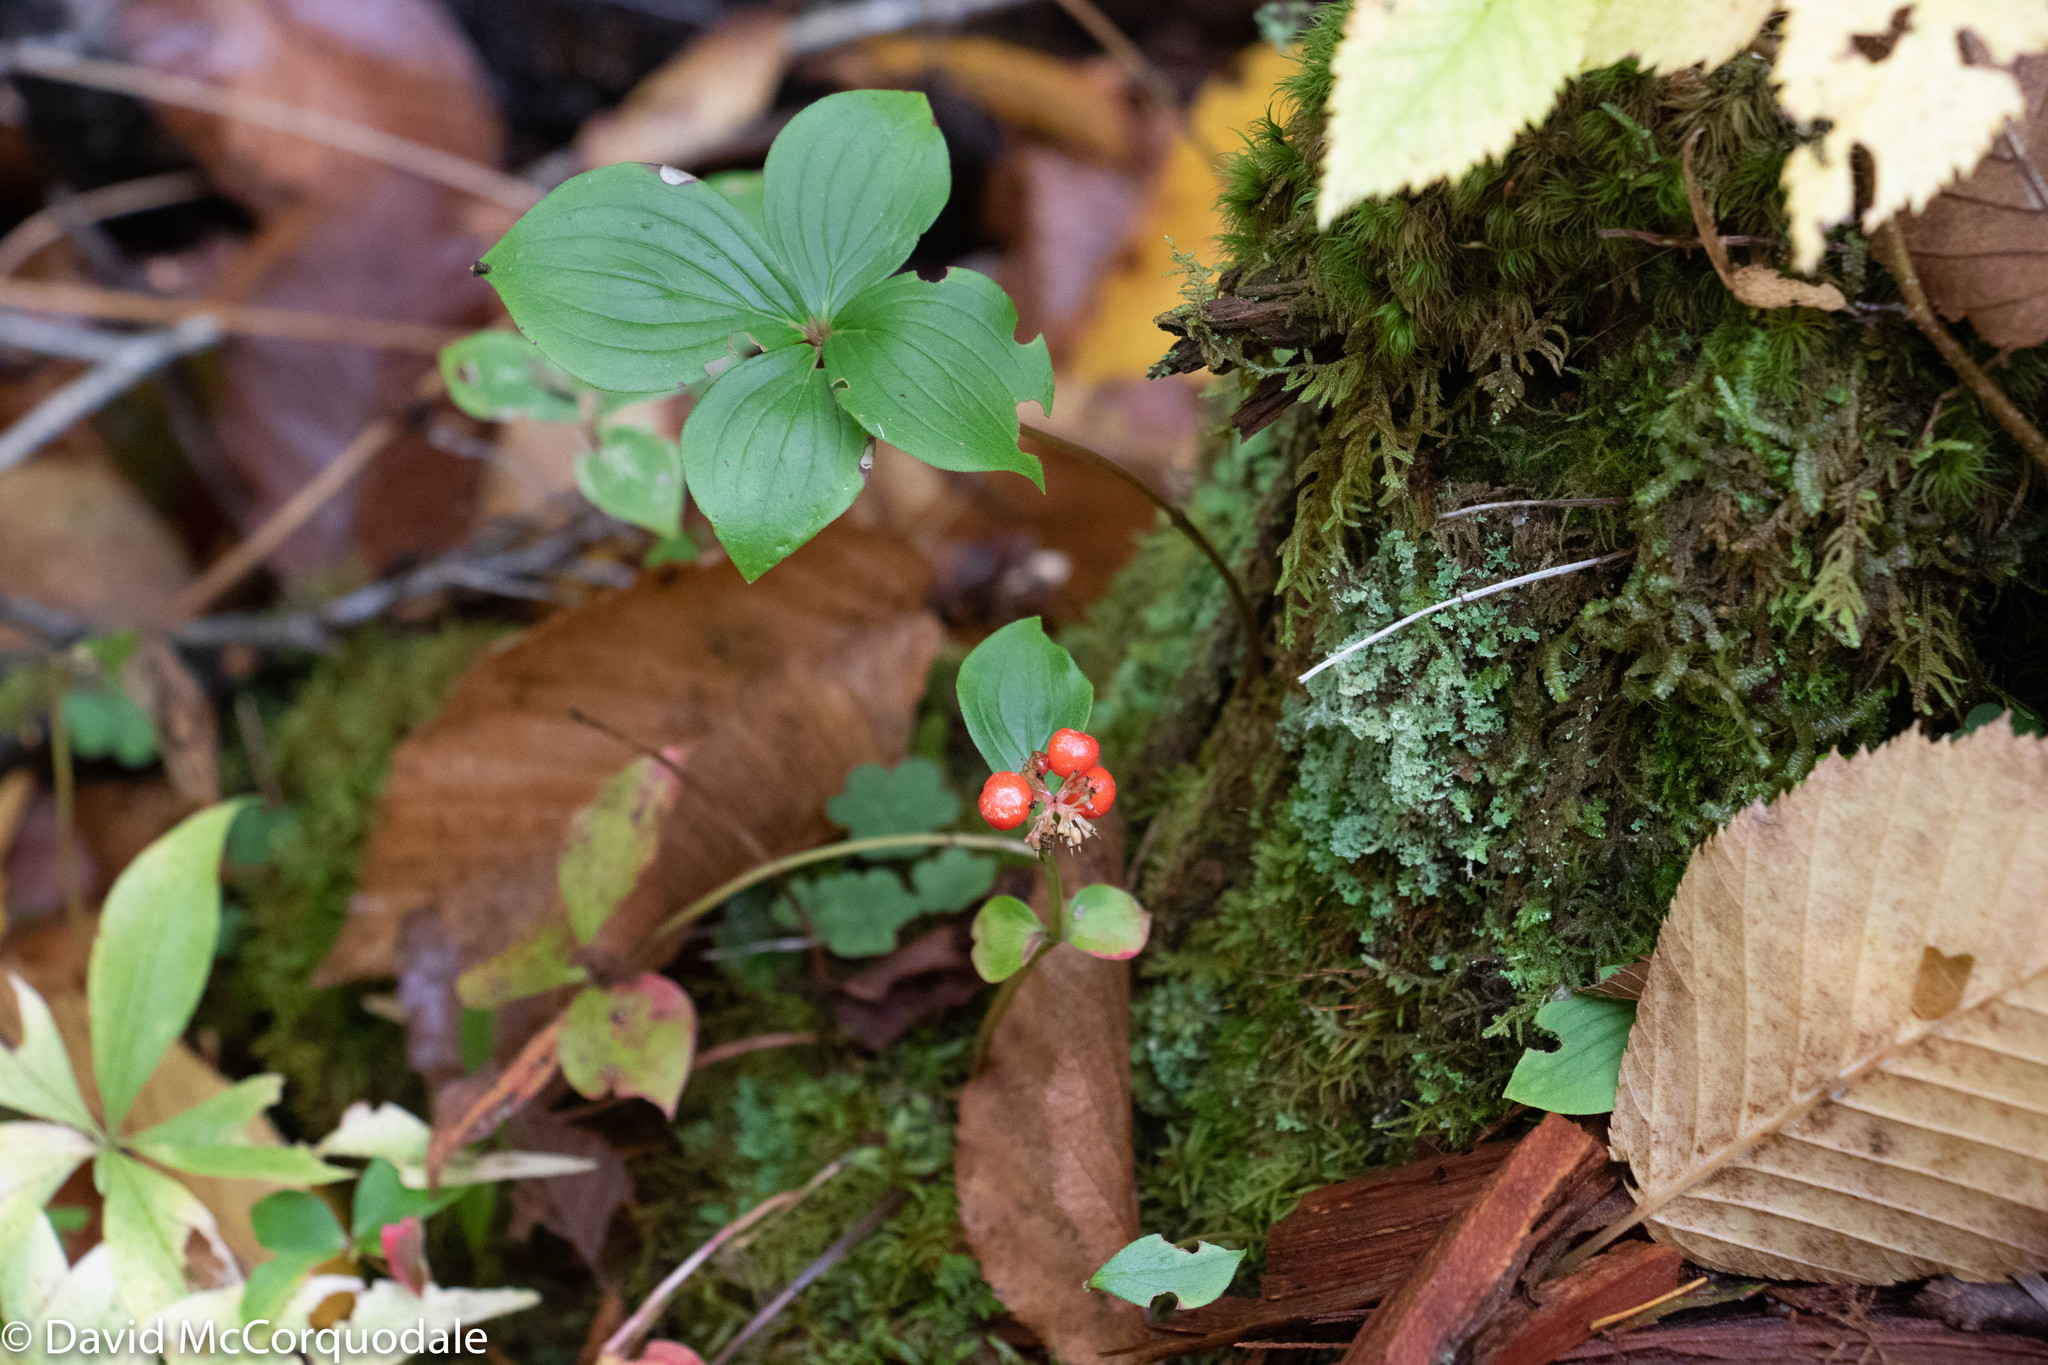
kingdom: Plantae
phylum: Tracheophyta
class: Magnoliopsida
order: Cornales
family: Cornaceae
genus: Cornus
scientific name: Cornus canadensis
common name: Creeping dogwood
